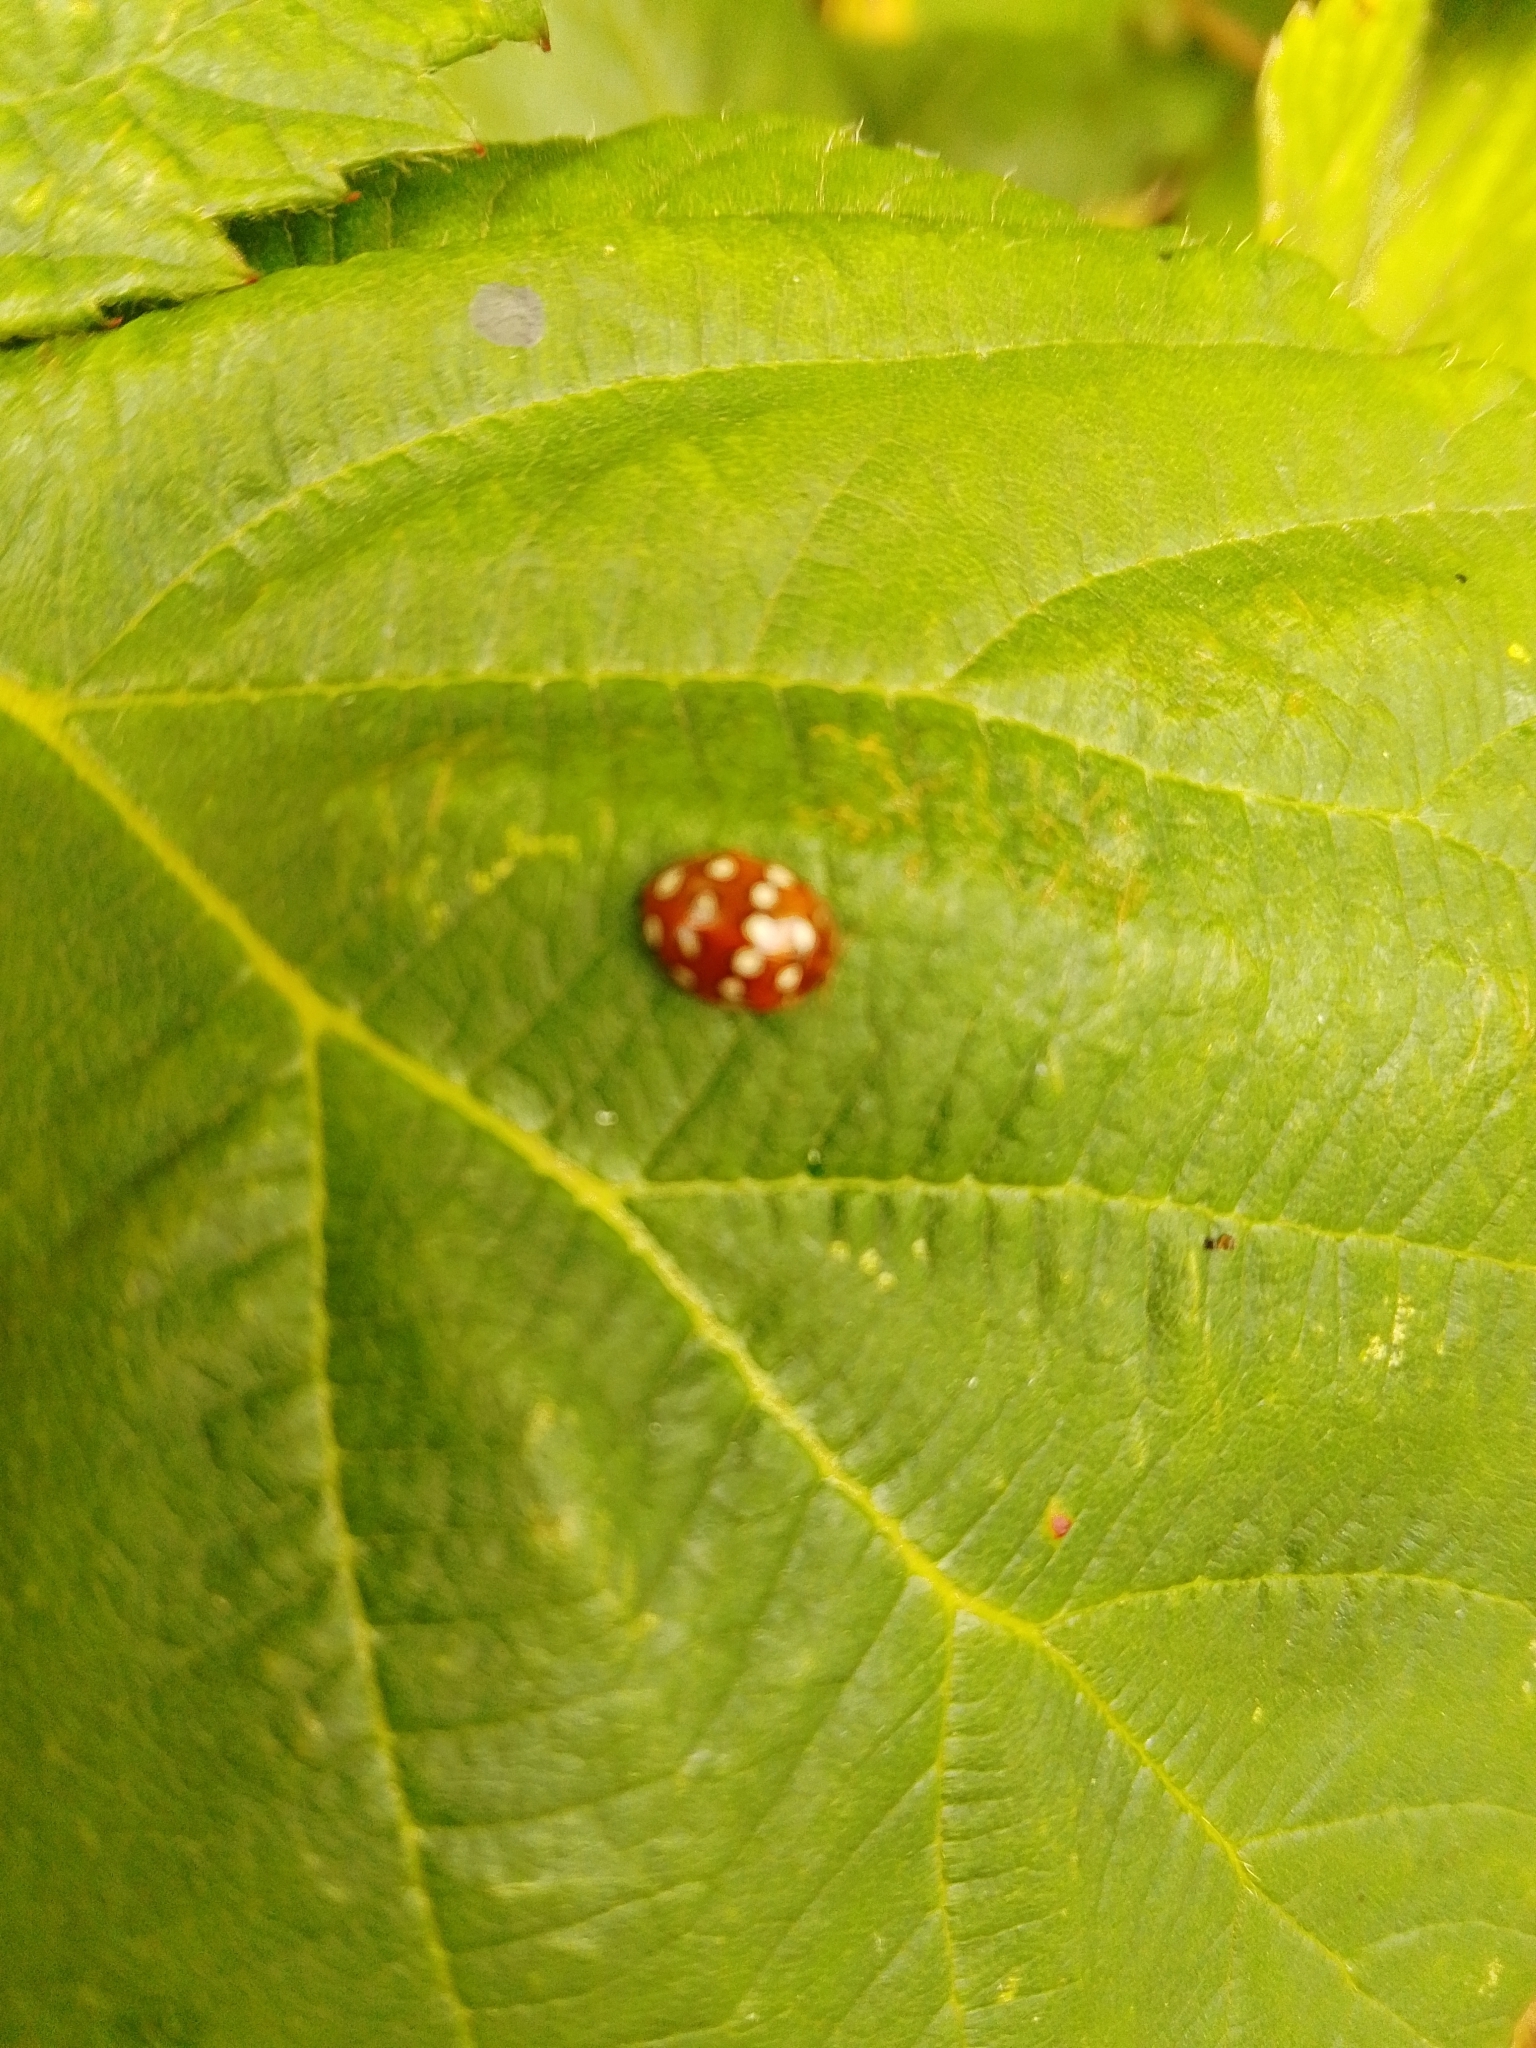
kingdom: Animalia
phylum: Arthropoda
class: Insecta
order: Coleoptera
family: Coccinellidae
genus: Calvia
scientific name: Calvia quatuordecimguttata
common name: Cream-spot ladybird
